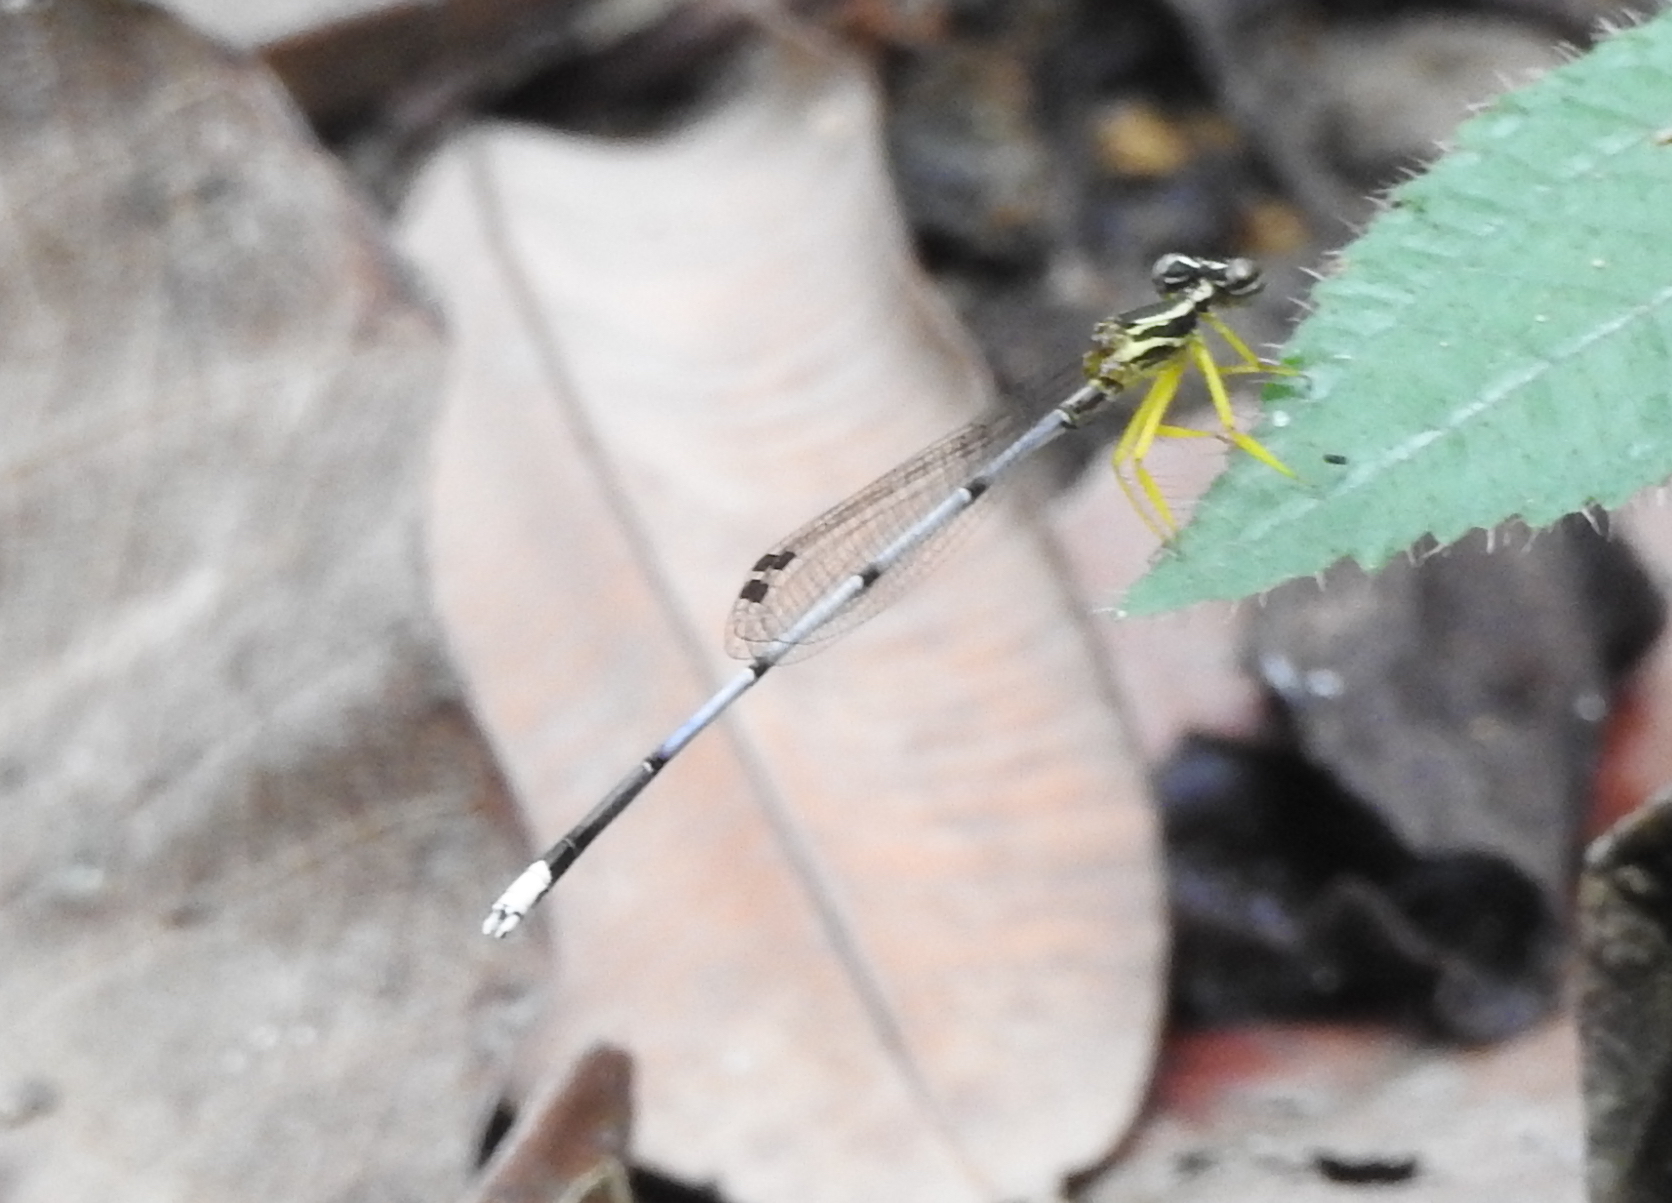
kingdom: Animalia
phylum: Arthropoda
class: Insecta
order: Odonata
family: Platycnemididae
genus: Copera
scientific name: Copera marginipes
